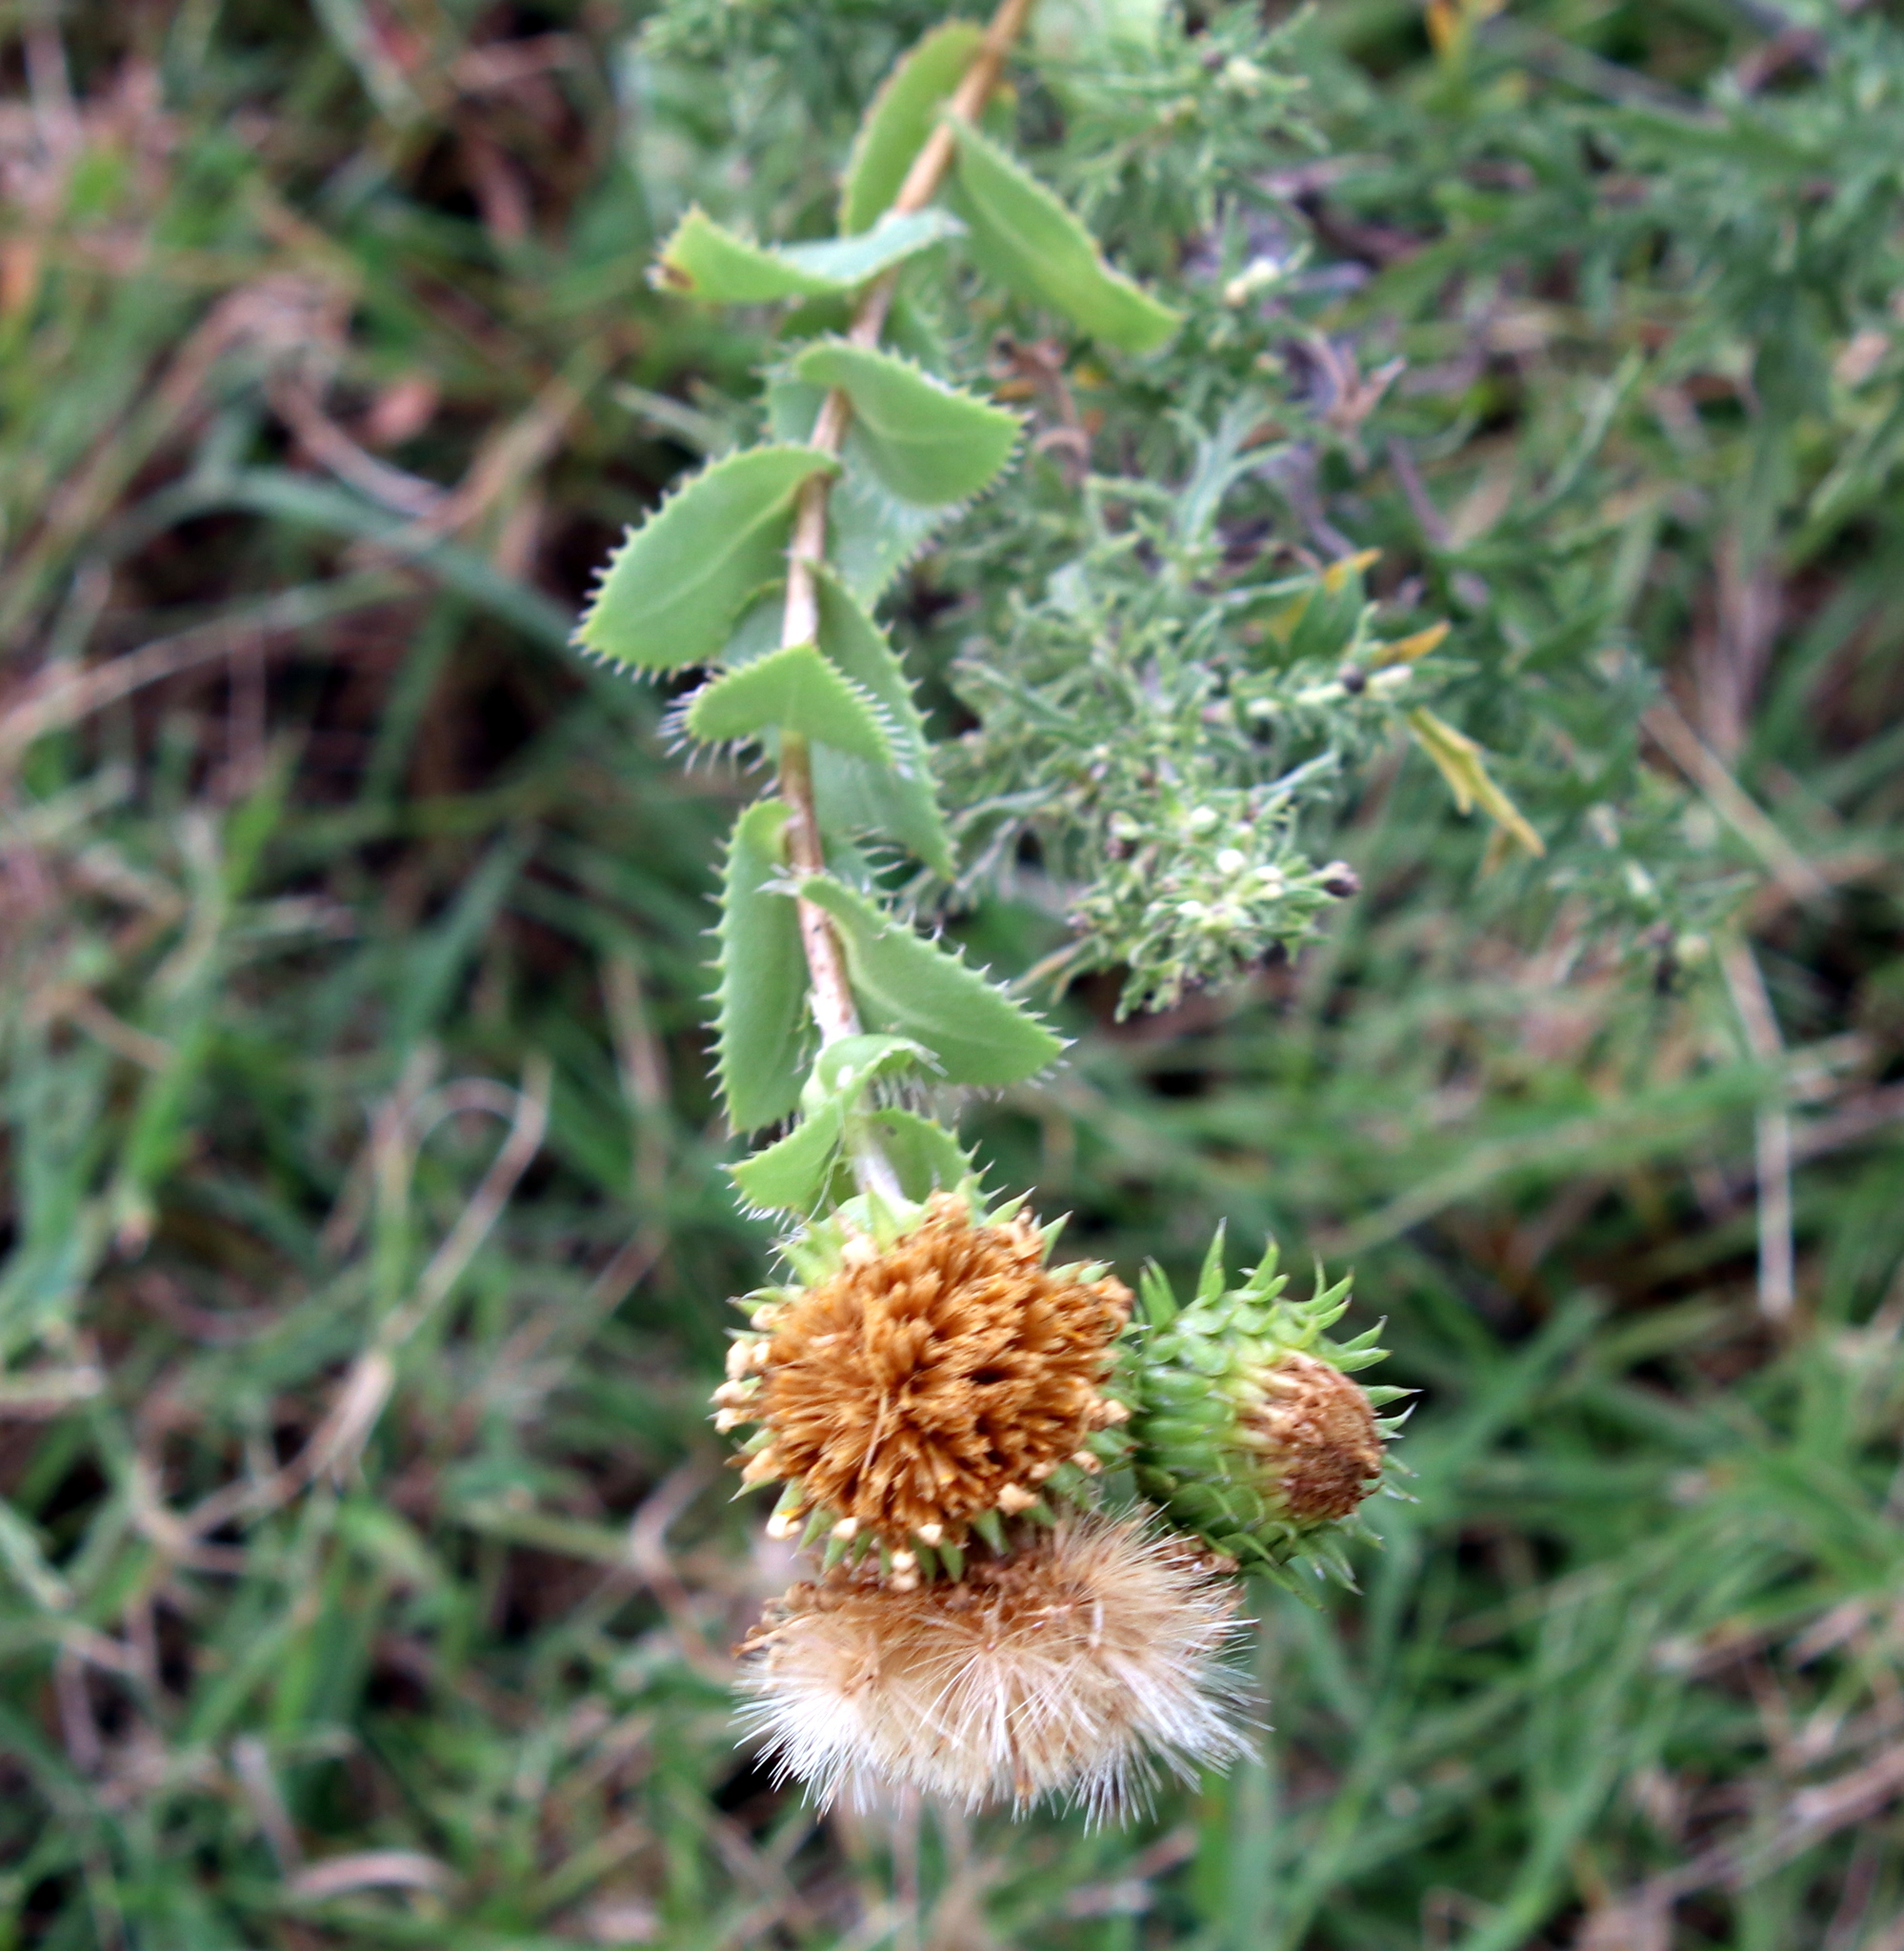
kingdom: Plantae
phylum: Tracheophyta
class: Magnoliopsida
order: Asterales
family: Asteraceae
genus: Grindelia
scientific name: Grindelia ciliata
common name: Goldenweed
